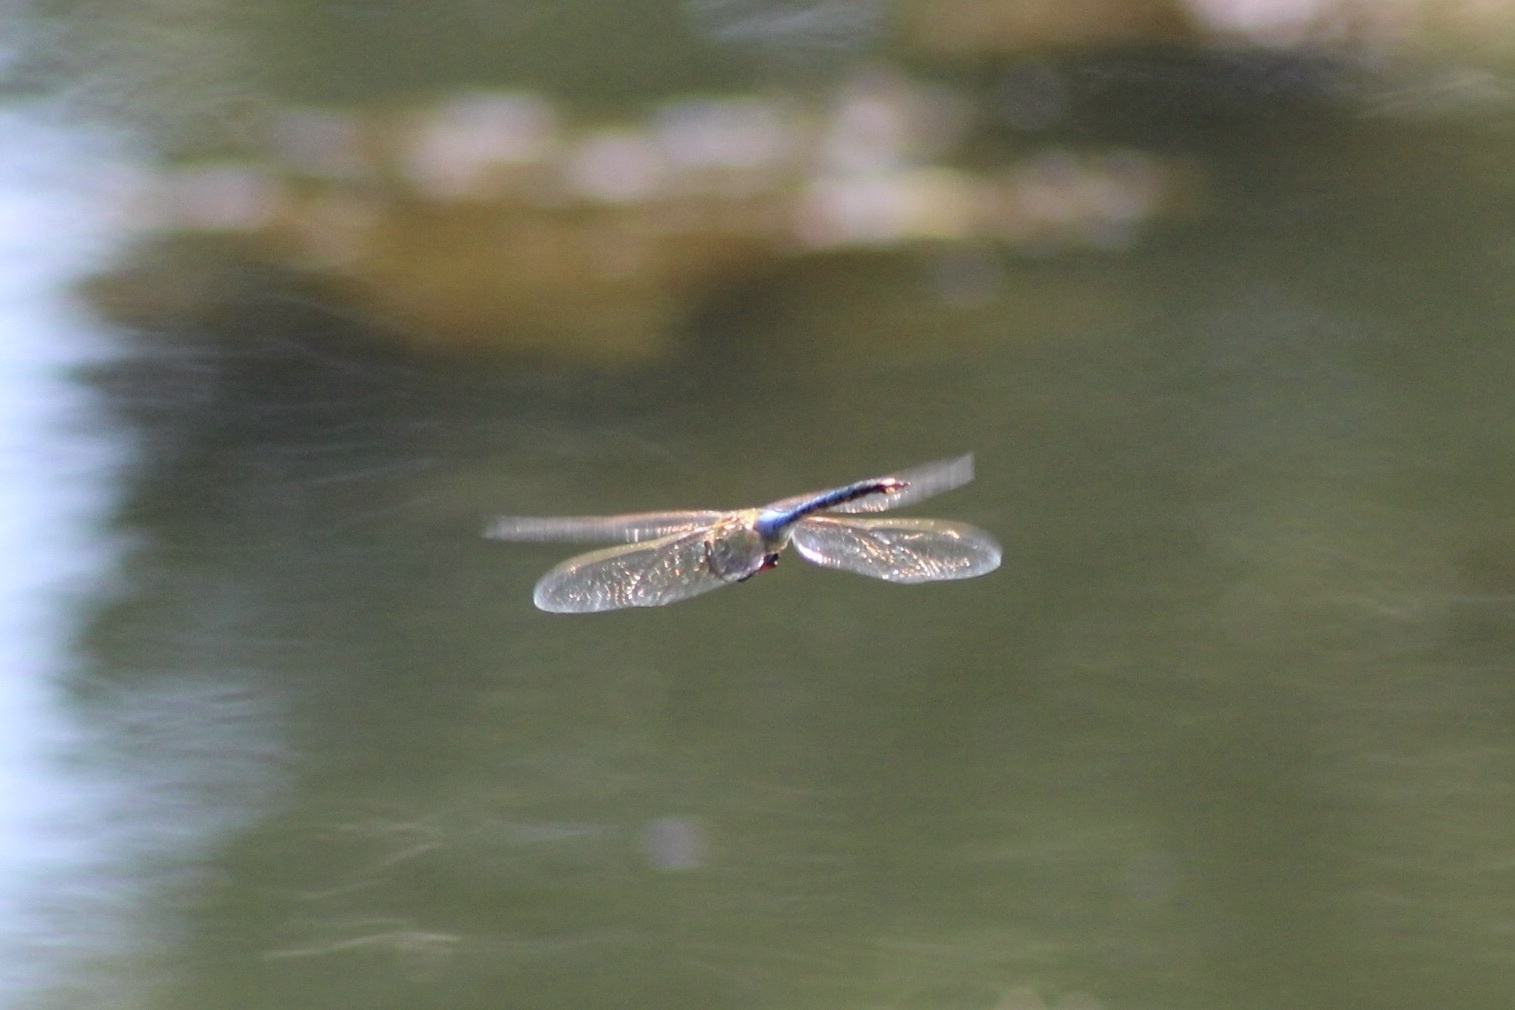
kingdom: Animalia
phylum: Arthropoda
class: Insecta
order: Odonata
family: Aeshnidae
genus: Anax
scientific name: Anax junius
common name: Common green darner
